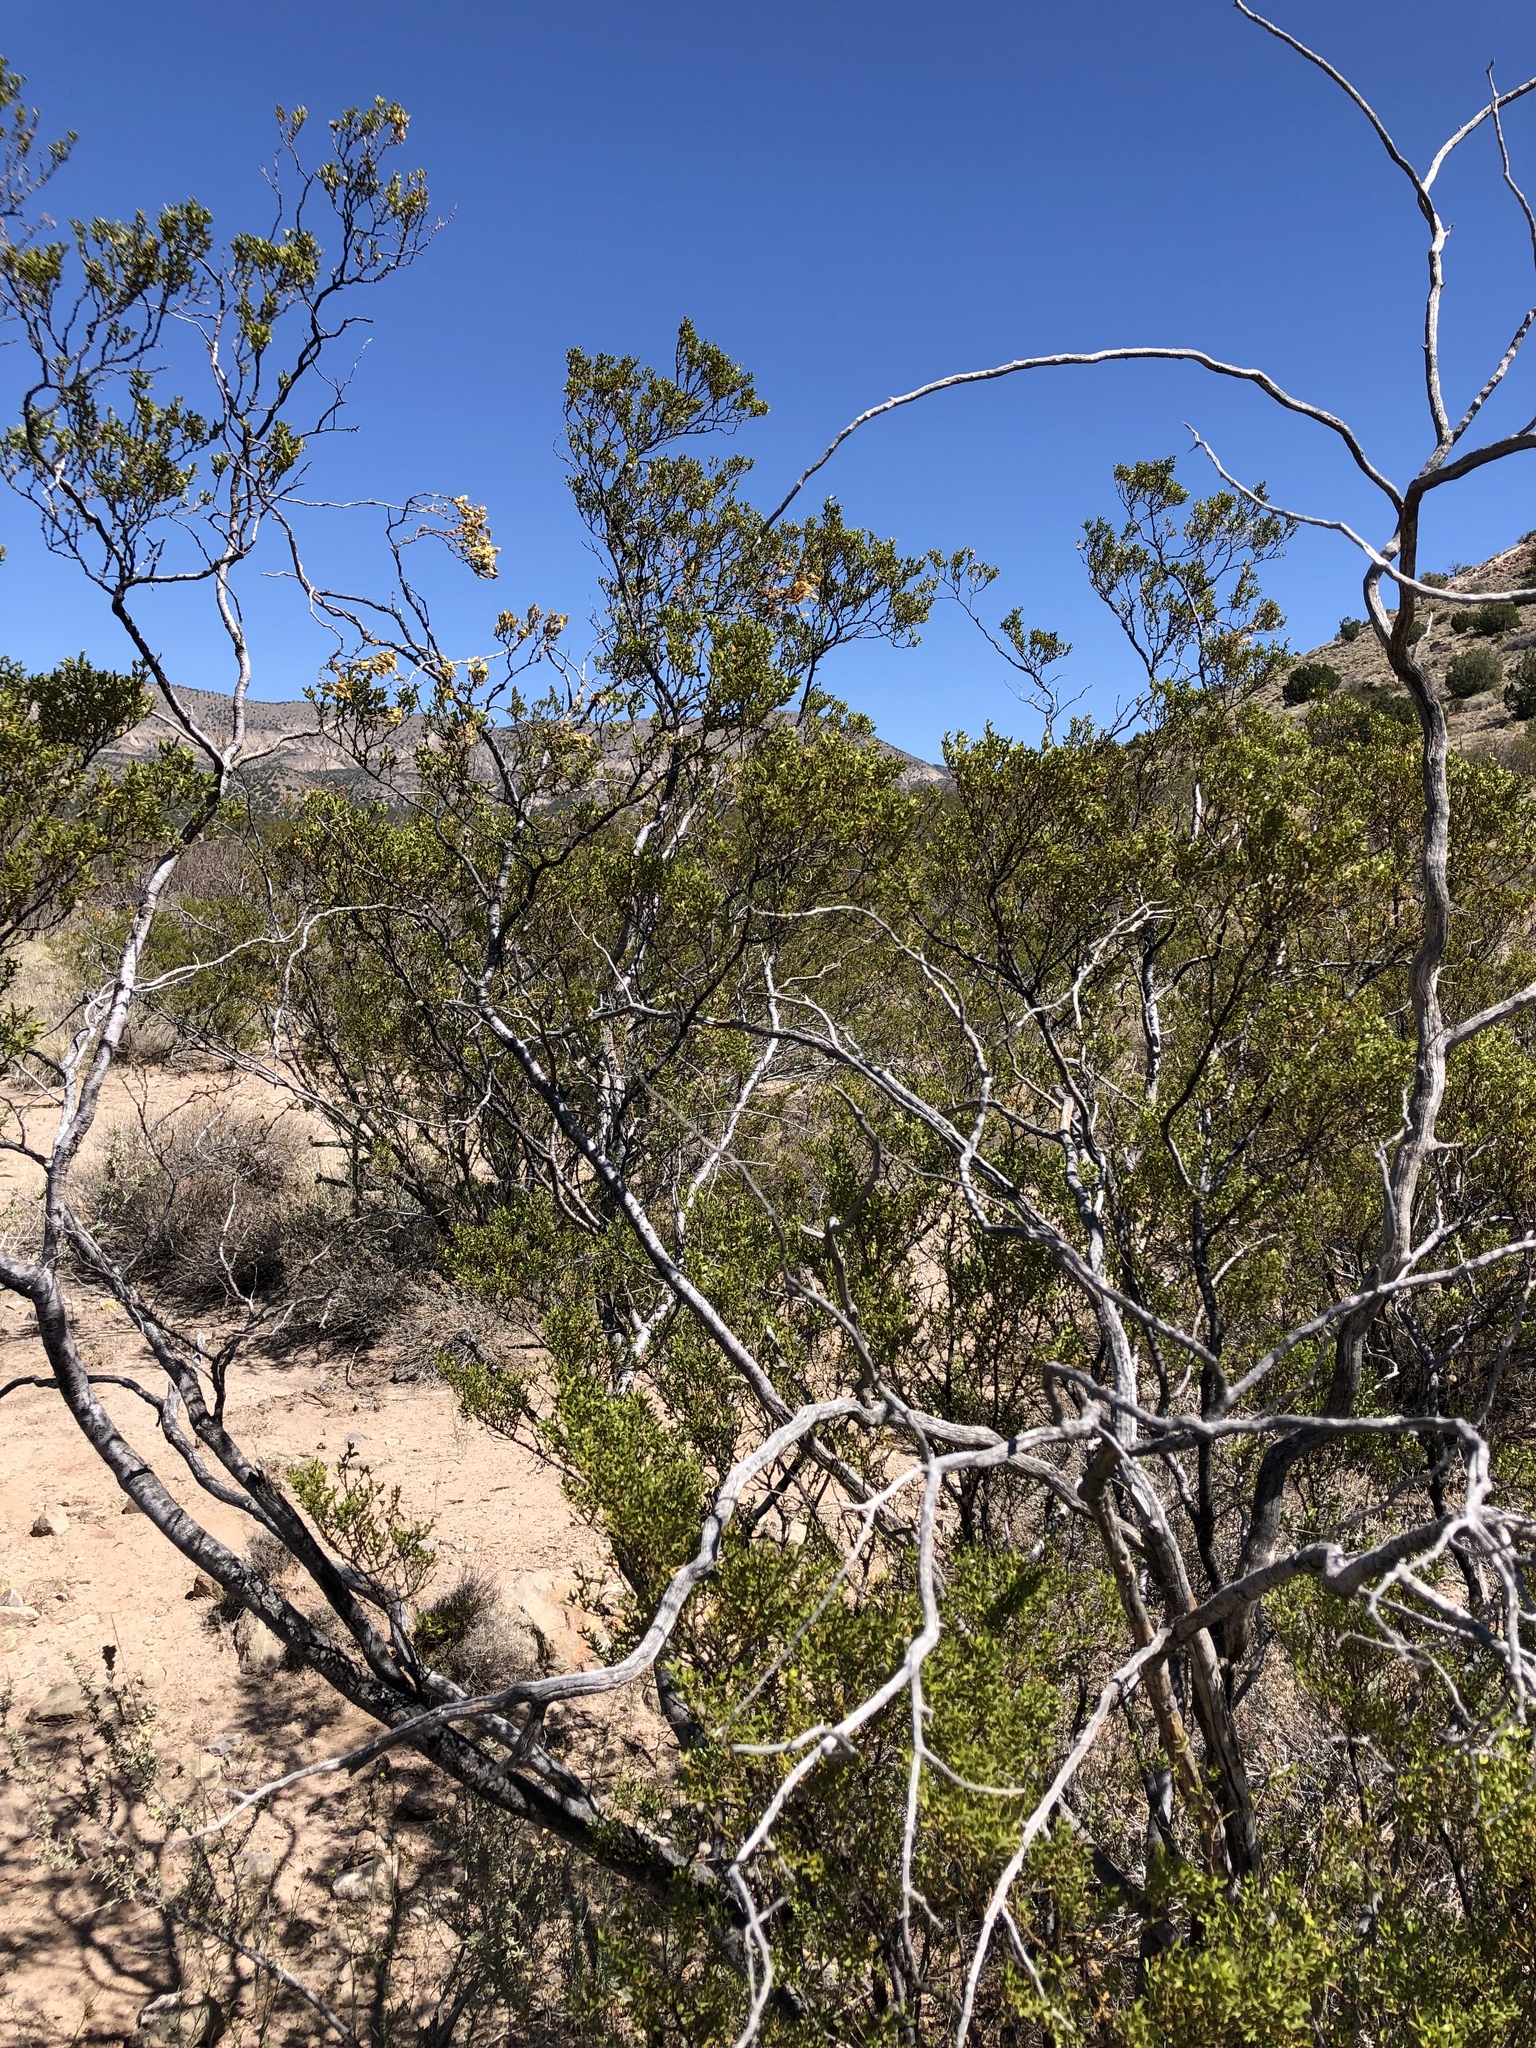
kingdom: Plantae
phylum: Tracheophyta
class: Magnoliopsida
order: Zygophyllales
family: Zygophyllaceae
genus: Larrea
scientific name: Larrea tridentata
